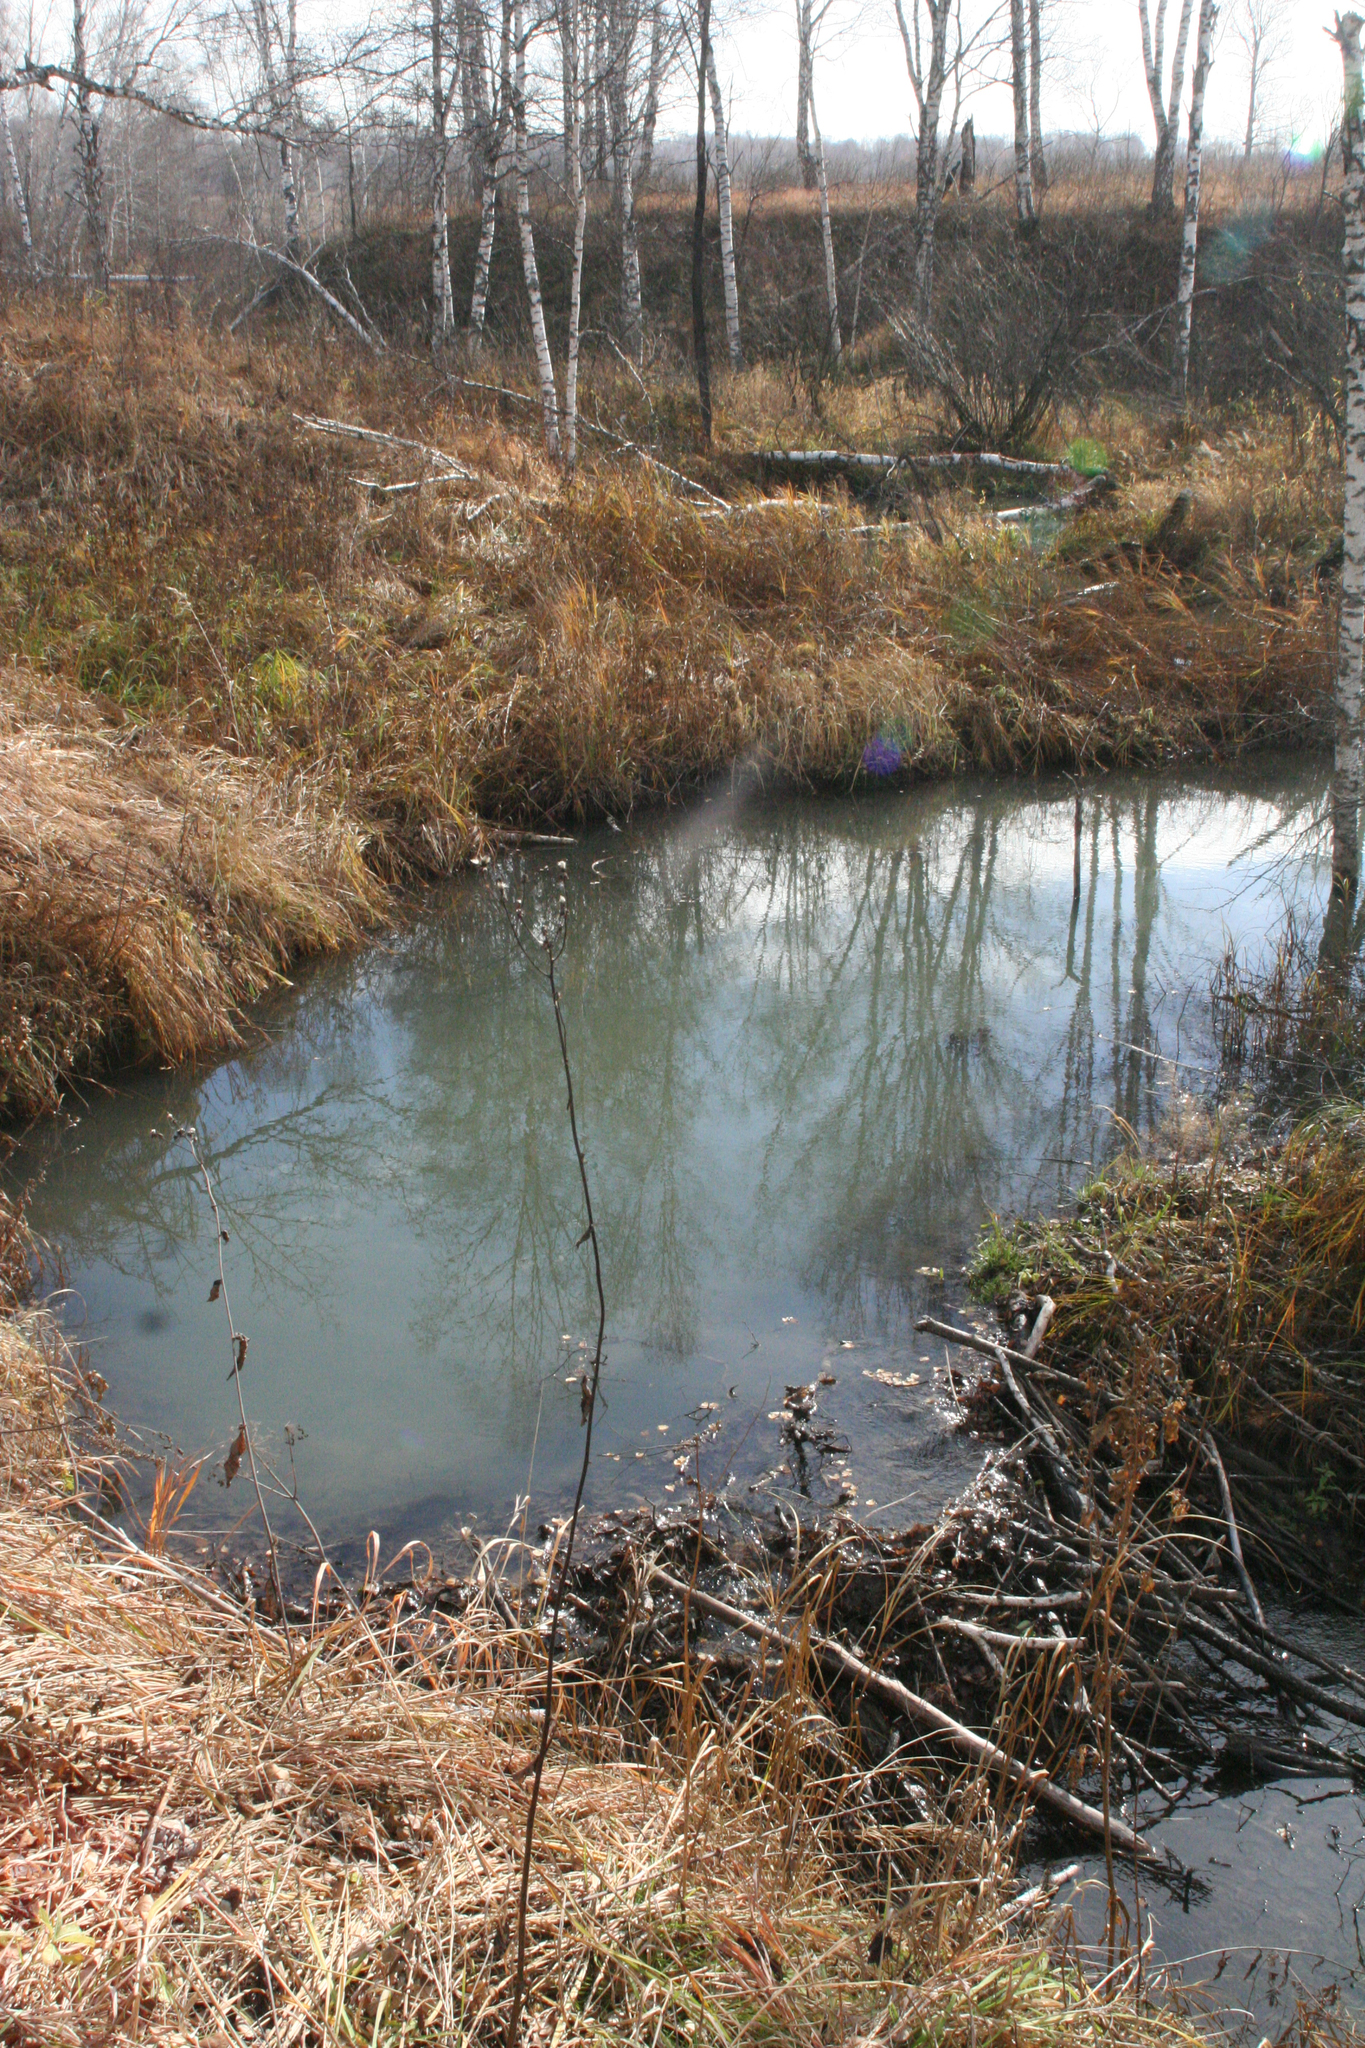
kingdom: Animalia
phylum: Chordata
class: Mammalia
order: Rodentia
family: Castoridae
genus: Castor
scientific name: Castor fiber
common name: Eurasian beaver
